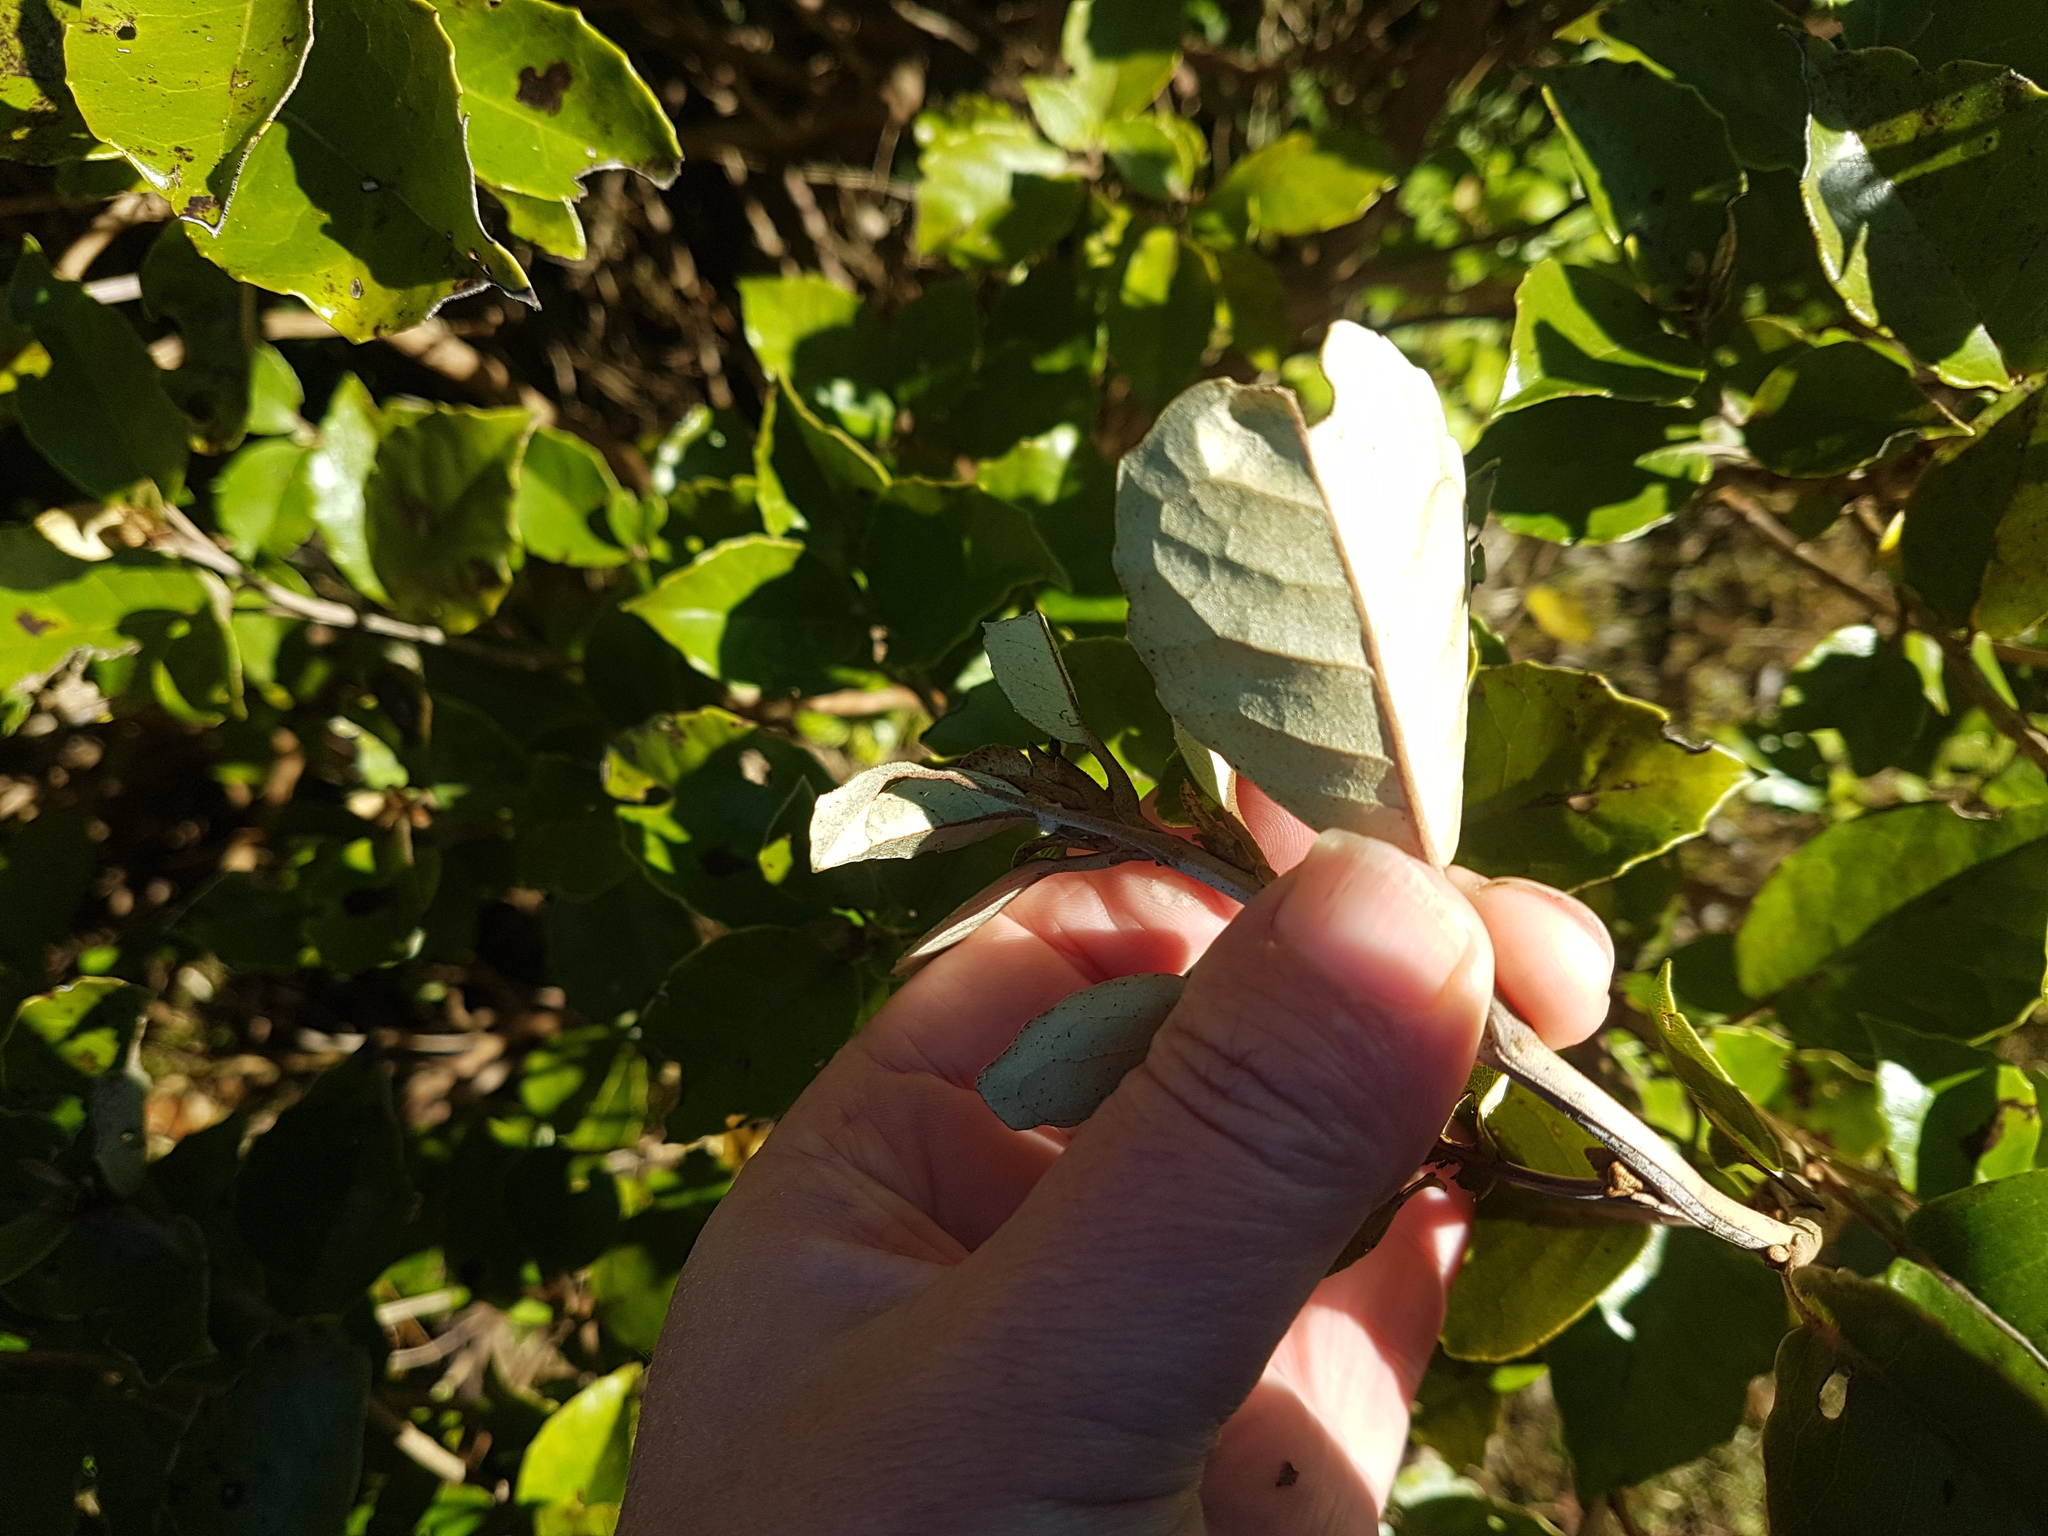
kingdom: Plantae
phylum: Tracheophyta
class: Magnoliopsida
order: Asterales
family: Asteraceae
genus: Olearia
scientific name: Olearia arborescens
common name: Glossy tree daisy
